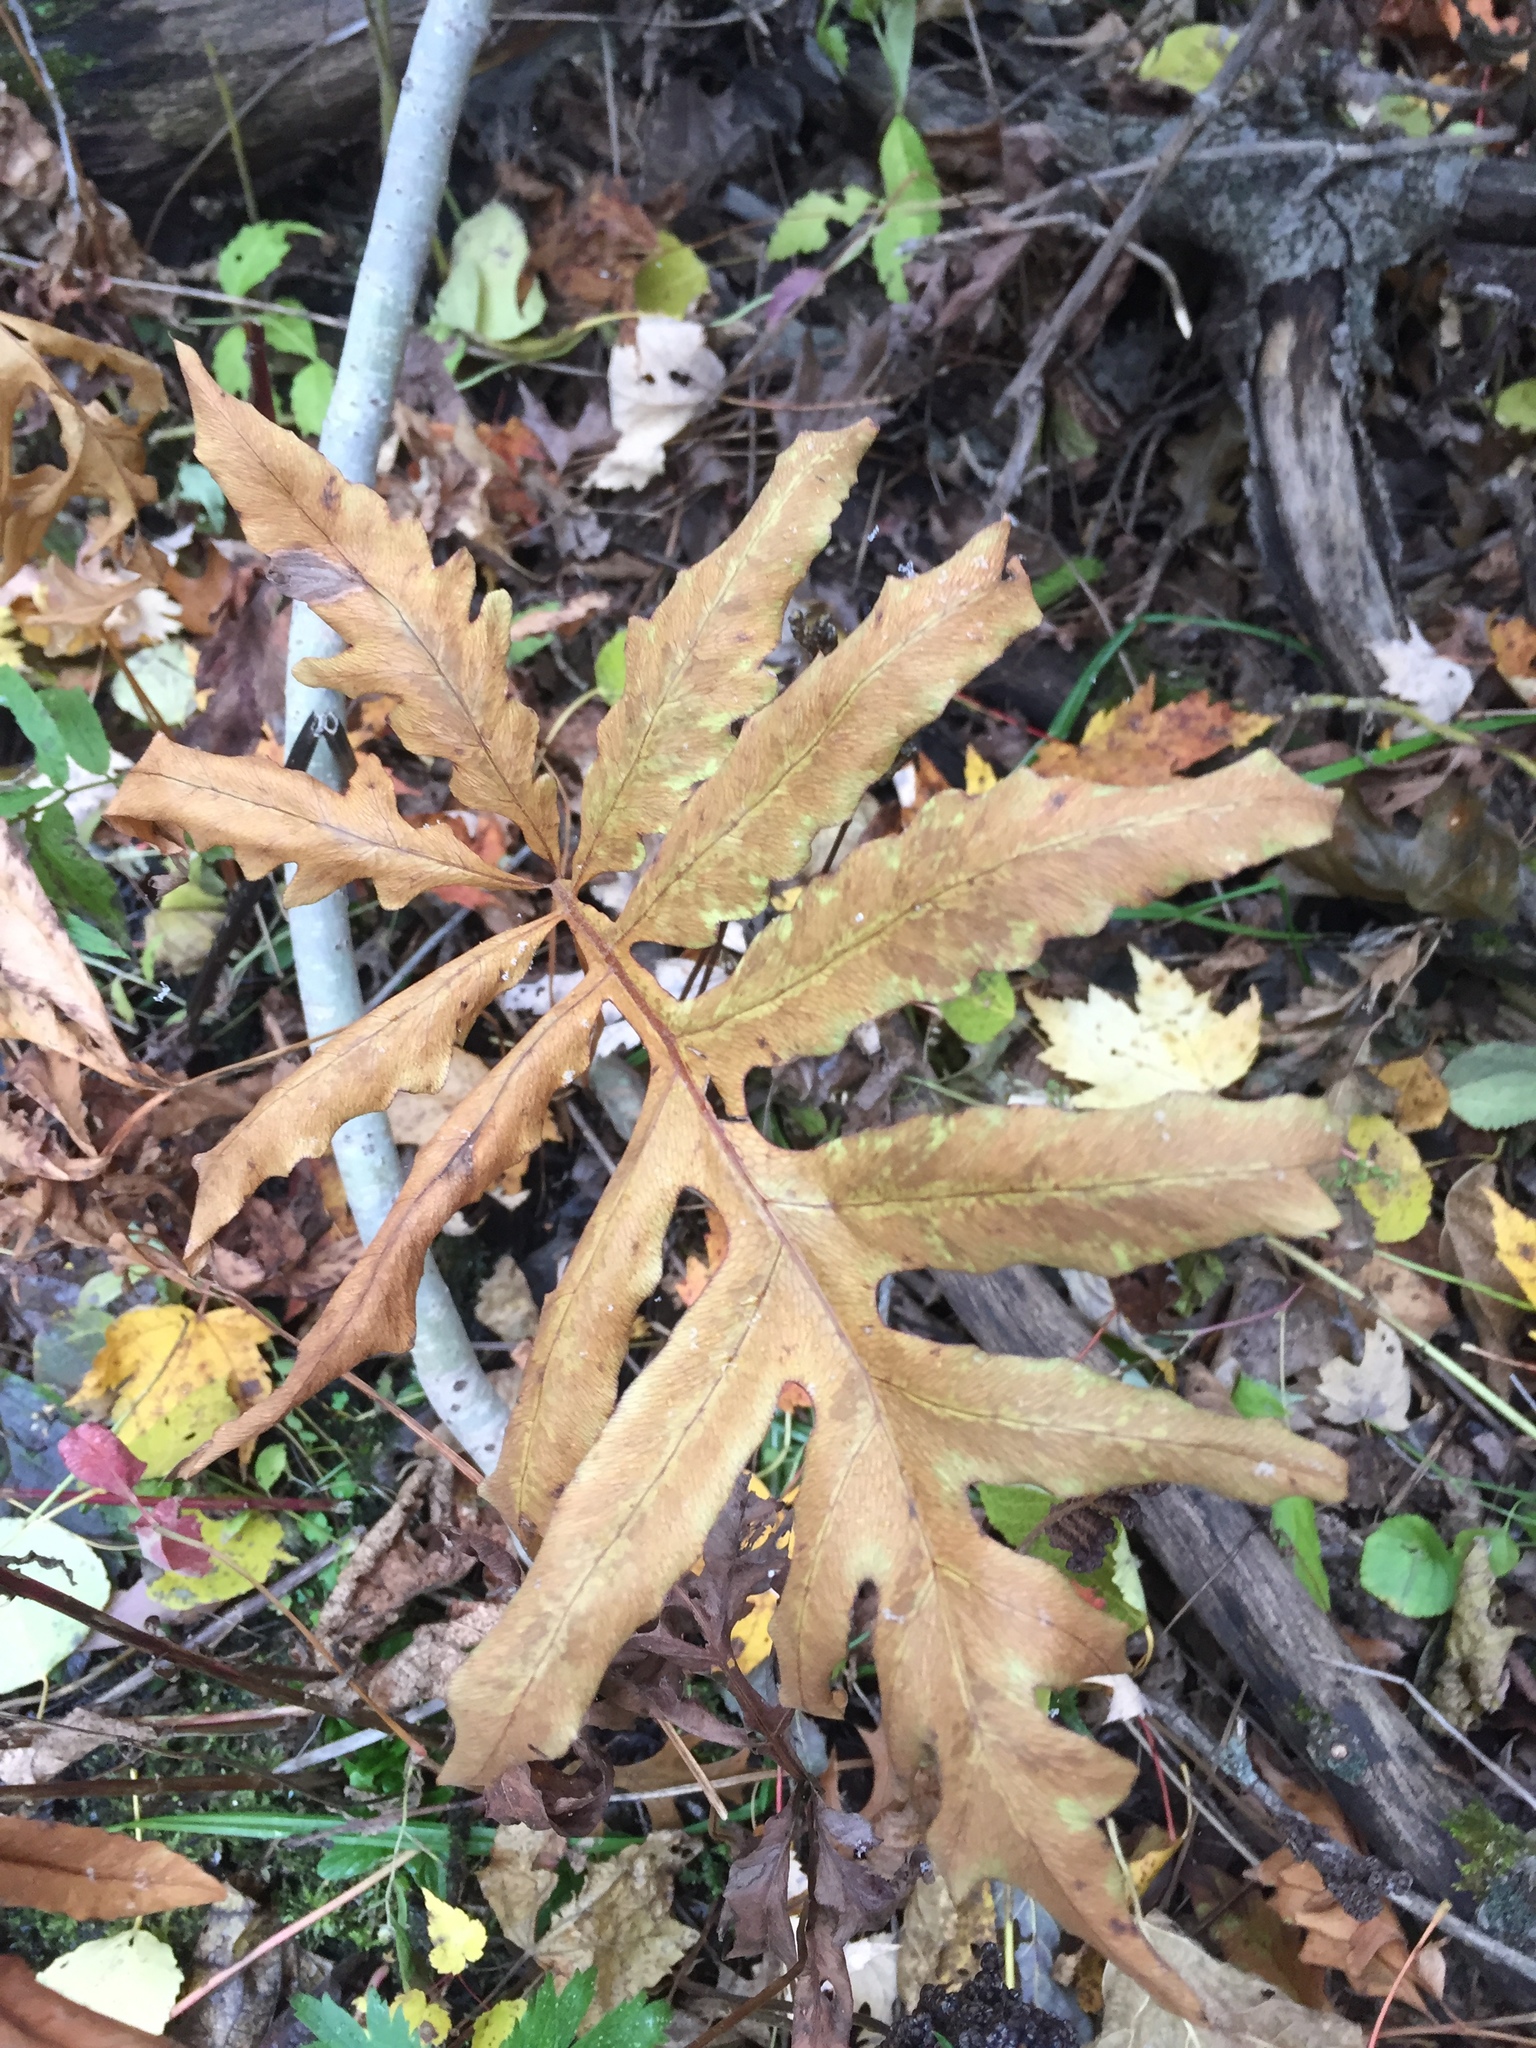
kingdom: Plantae
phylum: Tracheophyta
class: Polypodiopsida
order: Polypodiales
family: Onocleaceae
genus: Onoclea
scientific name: Onoclea sensibilis
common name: Sensitive fern
